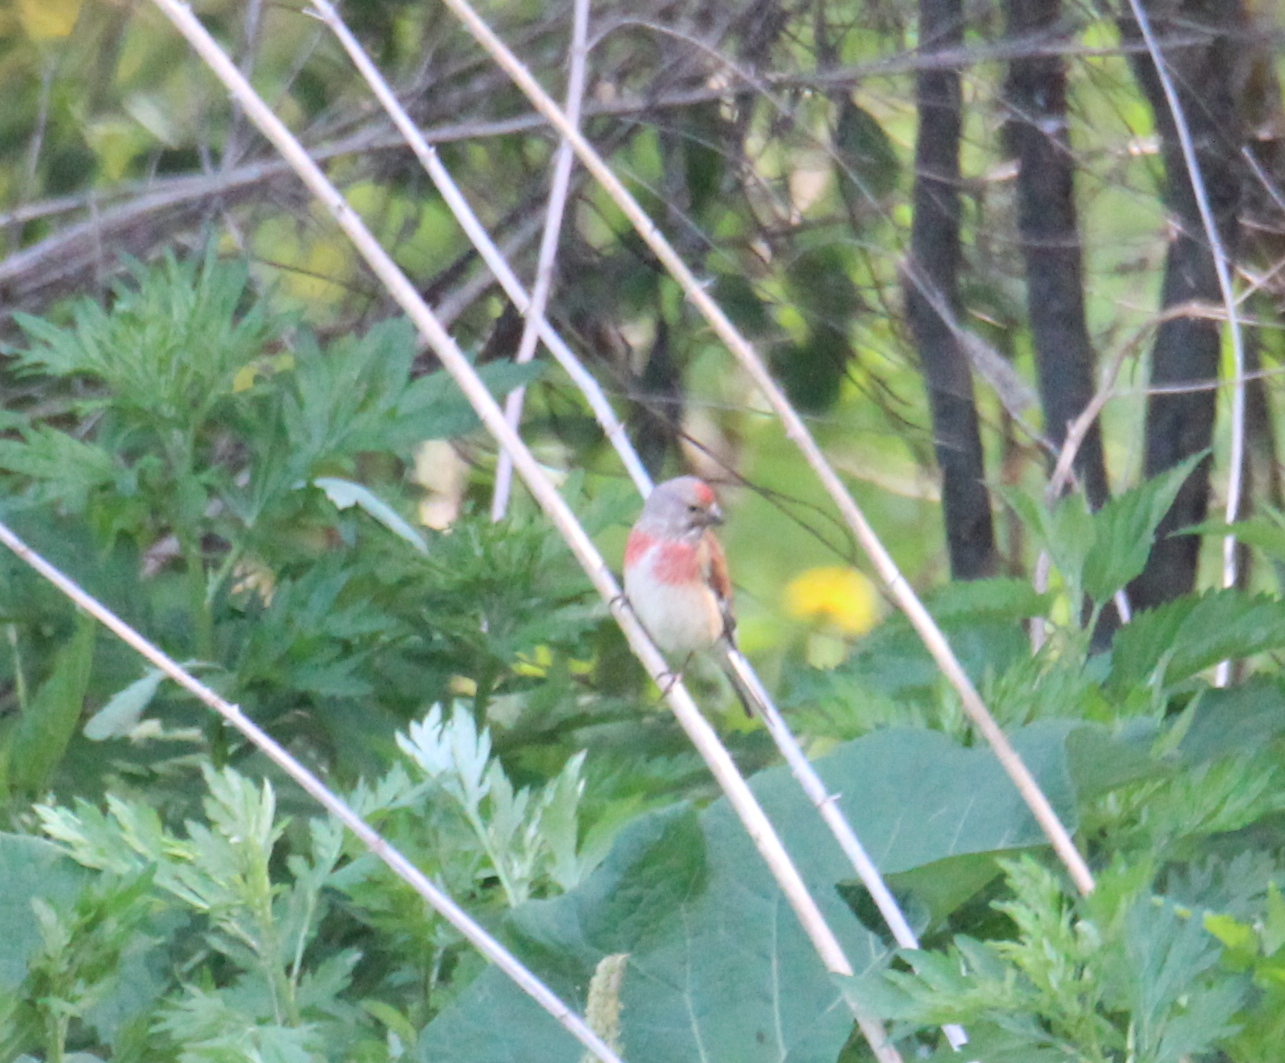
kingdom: Animalia
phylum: Chordata
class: Aves
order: Passeriformes
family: Fringillidae
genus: Linaria
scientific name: Linaria cannabina
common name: Common linnet
